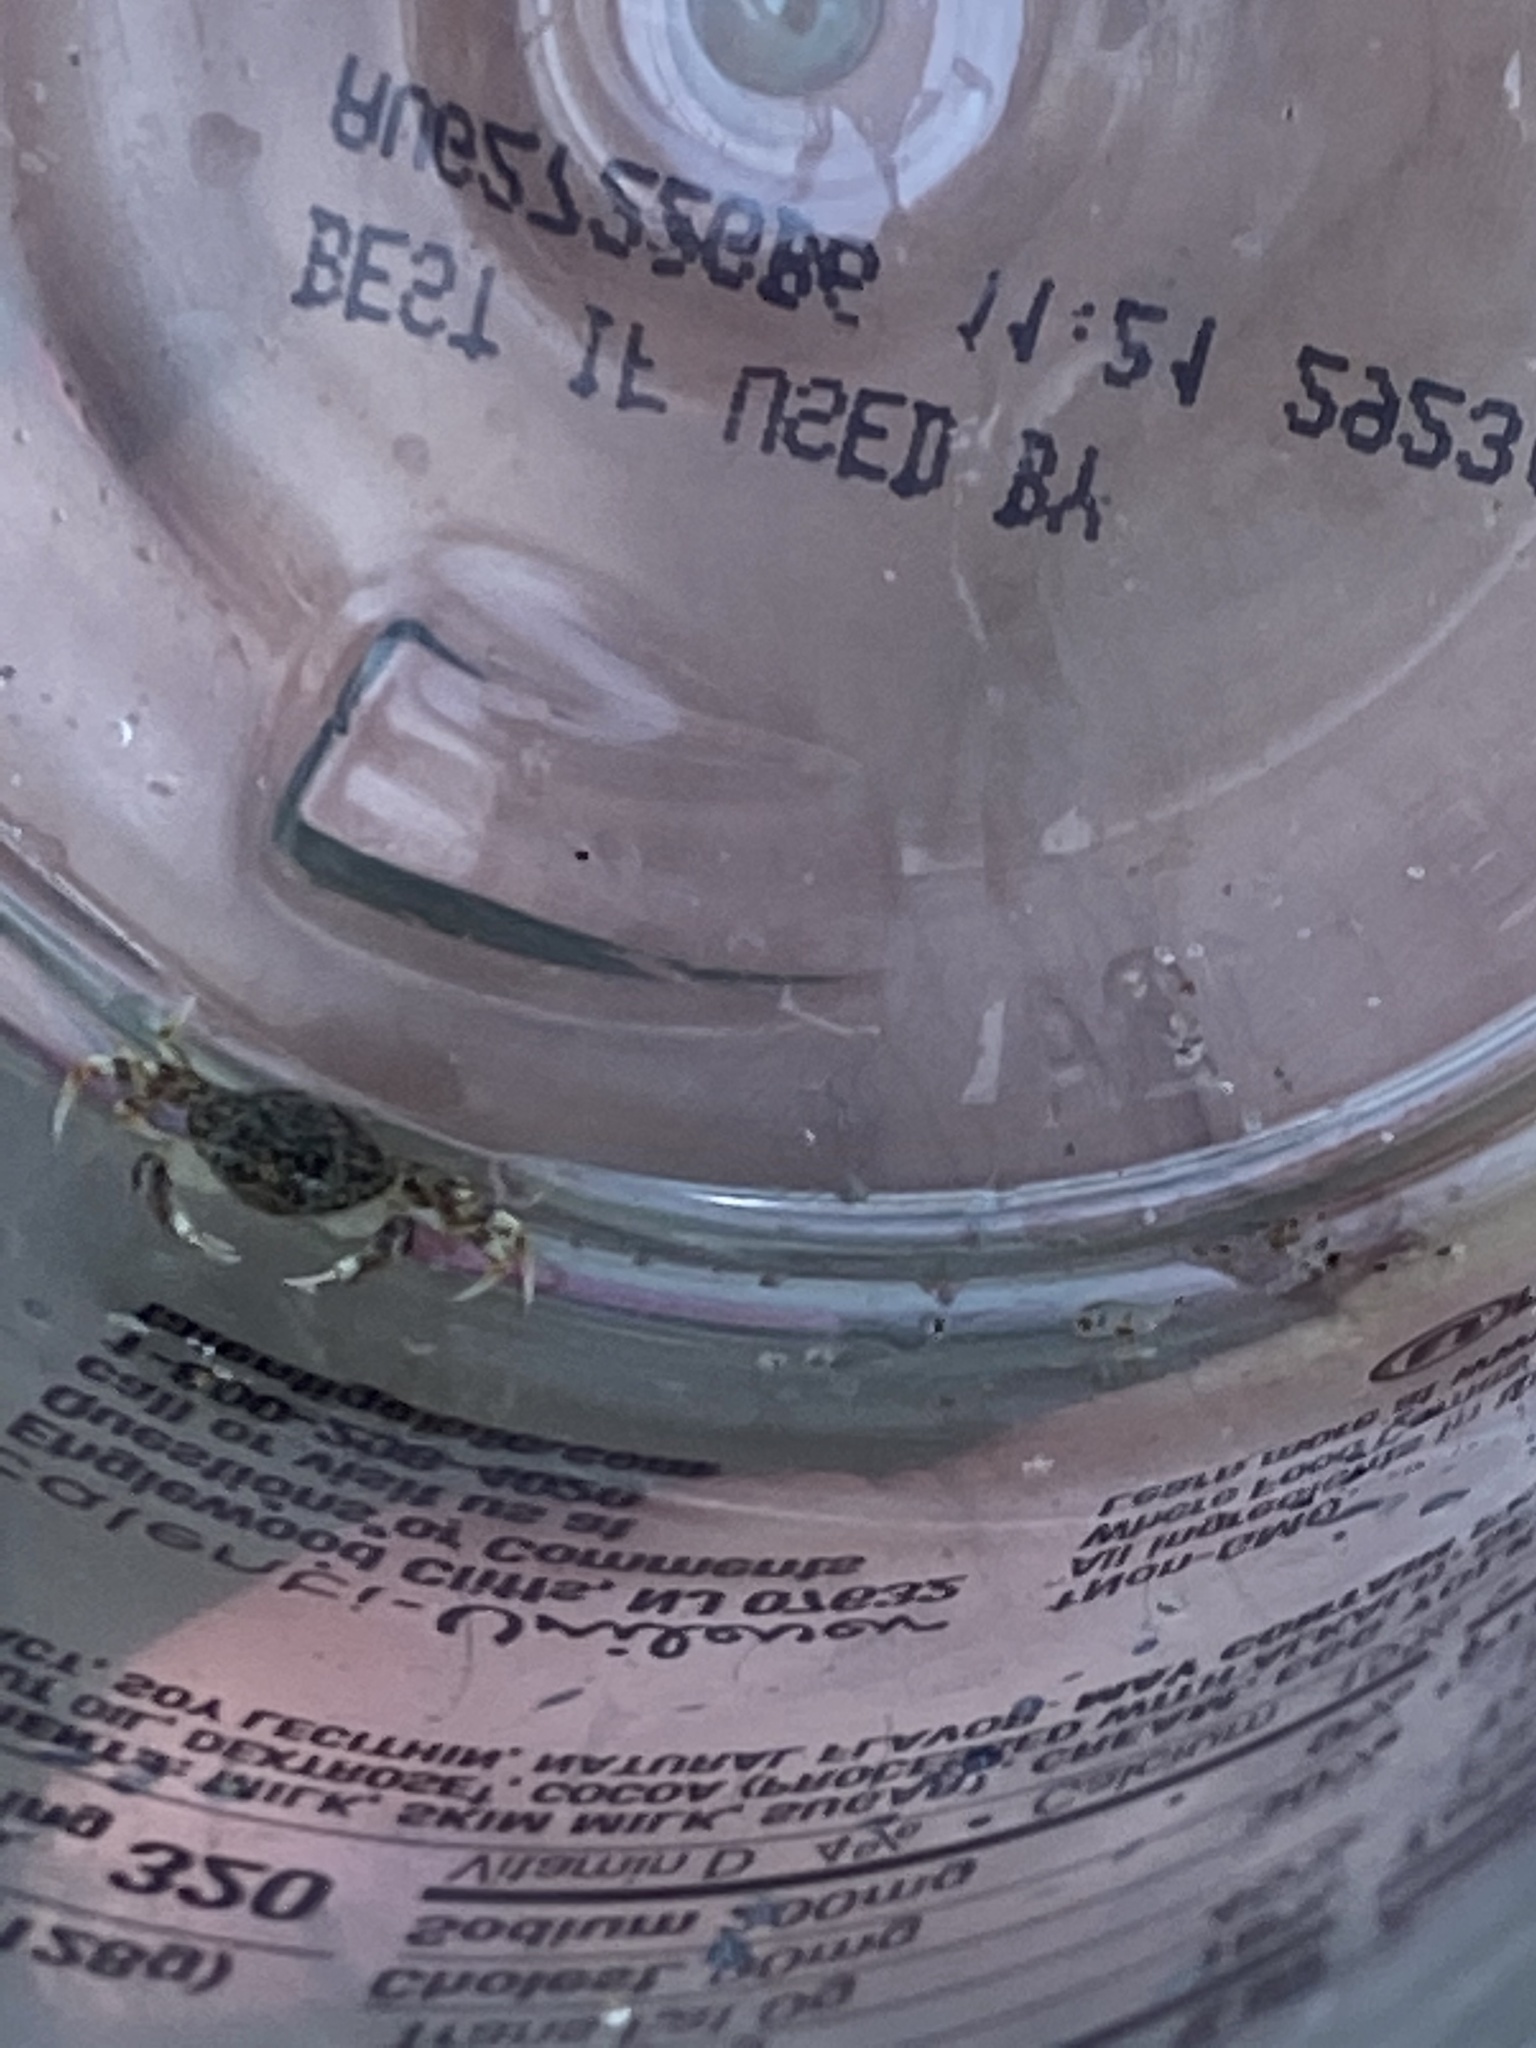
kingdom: Animalia
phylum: Arthropoda
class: Malacostraca
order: Decapoda
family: Cancridae
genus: Metacarcinus
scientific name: Metacarcinus gracilis
